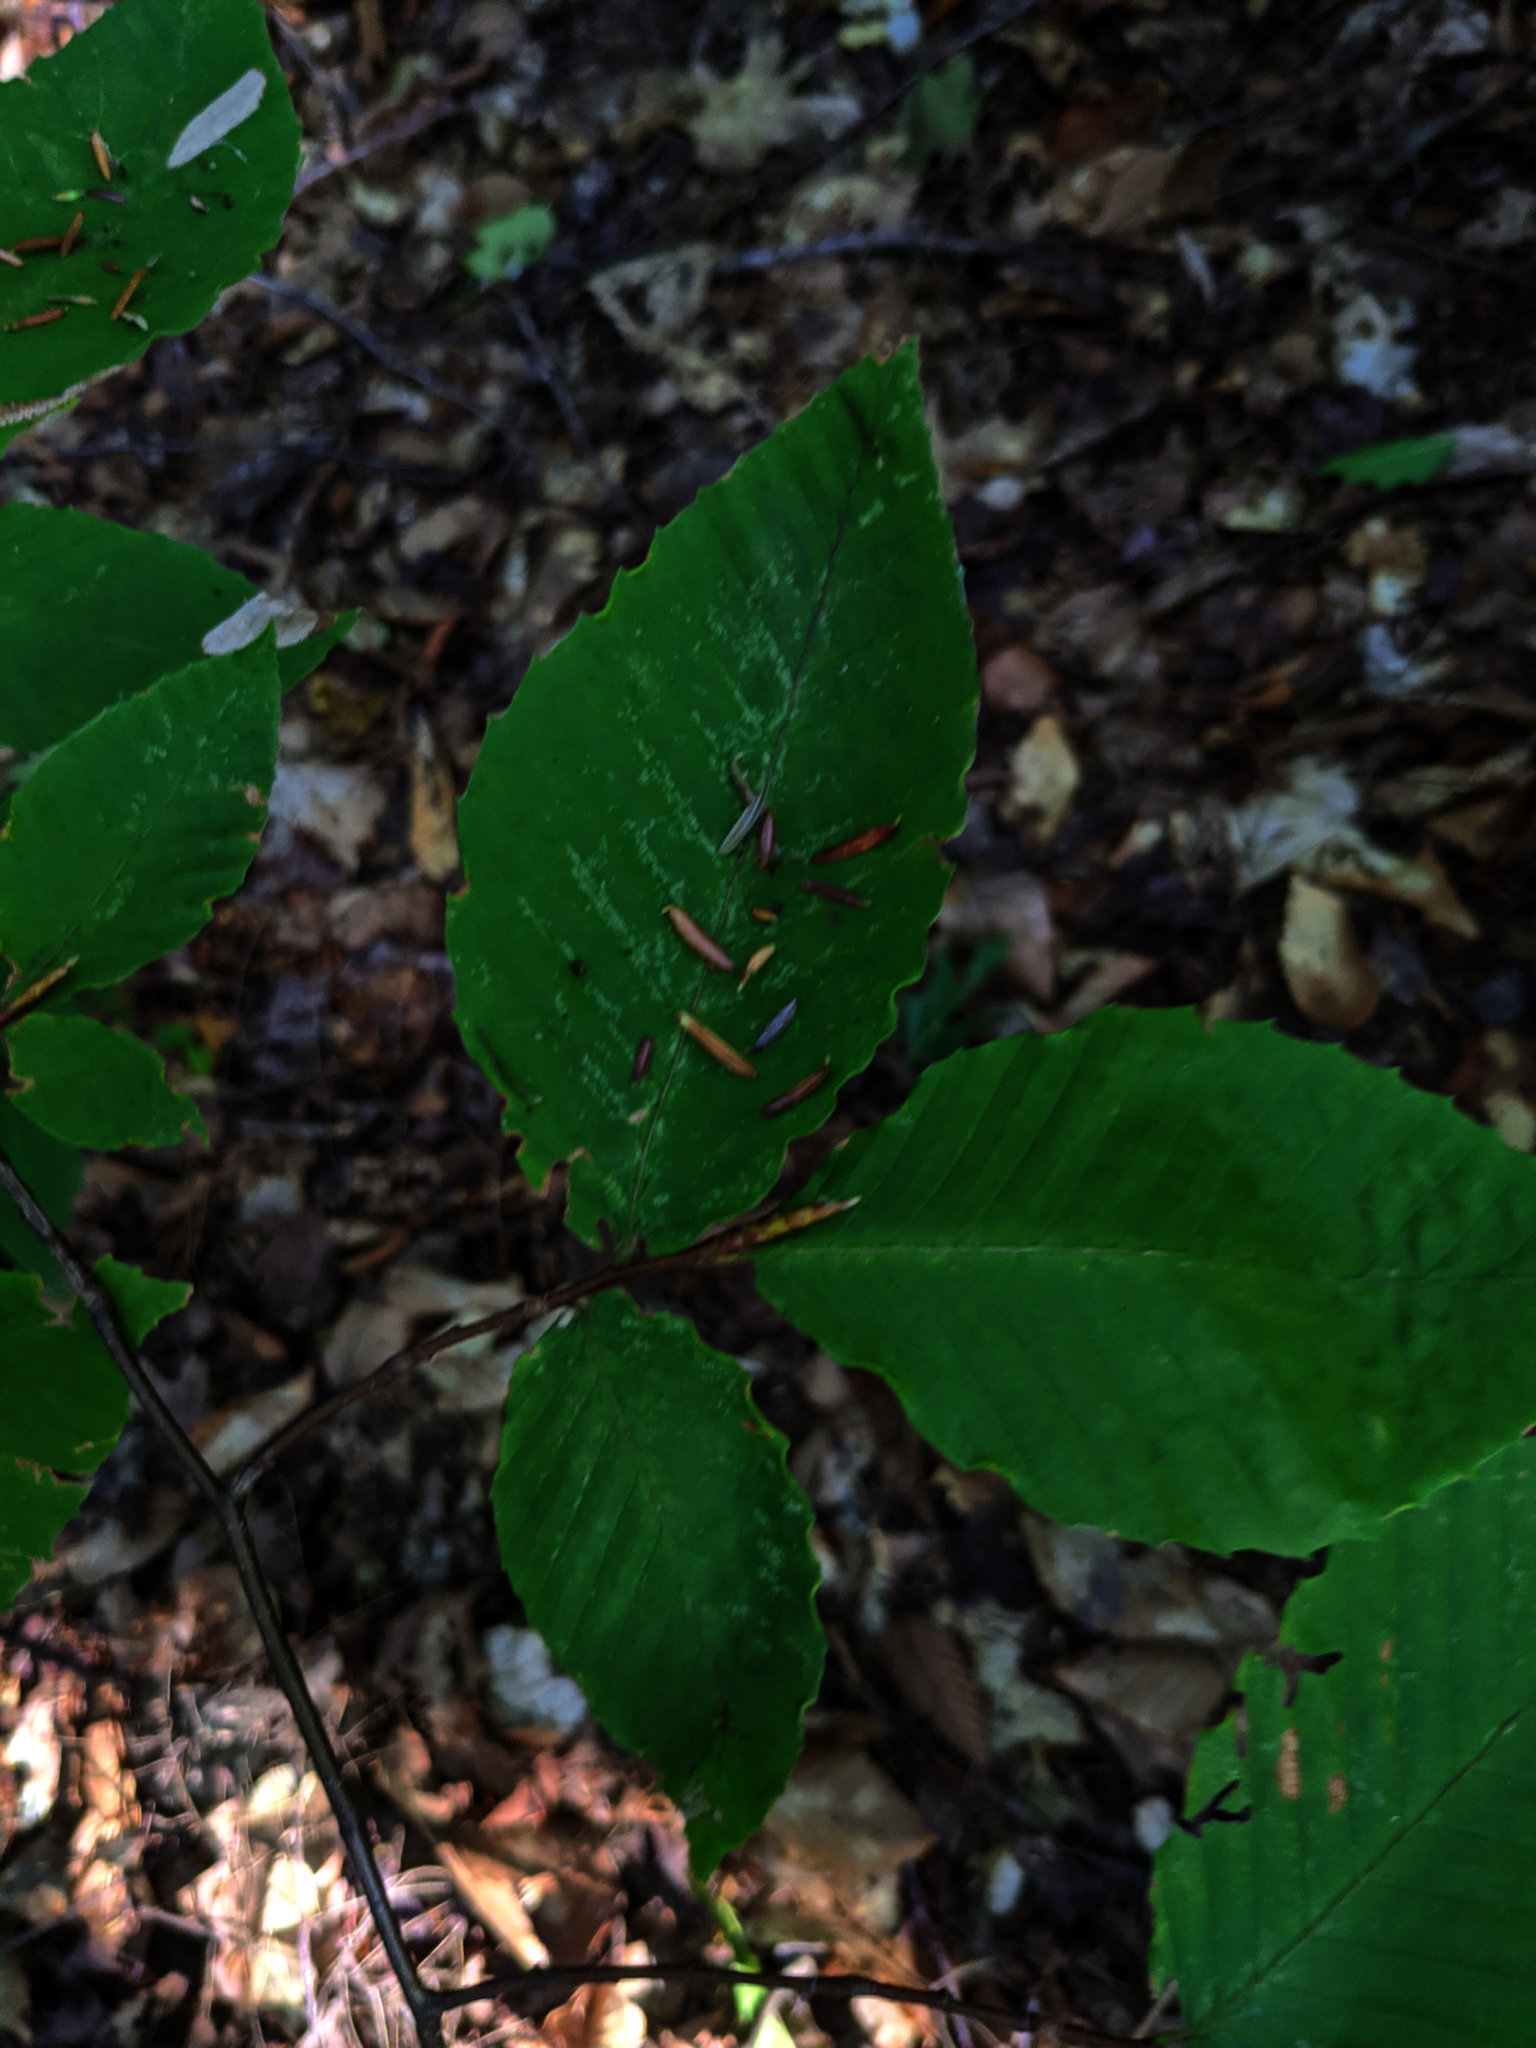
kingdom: Plantae
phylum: Tracheophyta
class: Magnoliopsida
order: Fagales
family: Fagaceae
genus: Fagus
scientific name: Fagus grandifolia
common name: American beech
